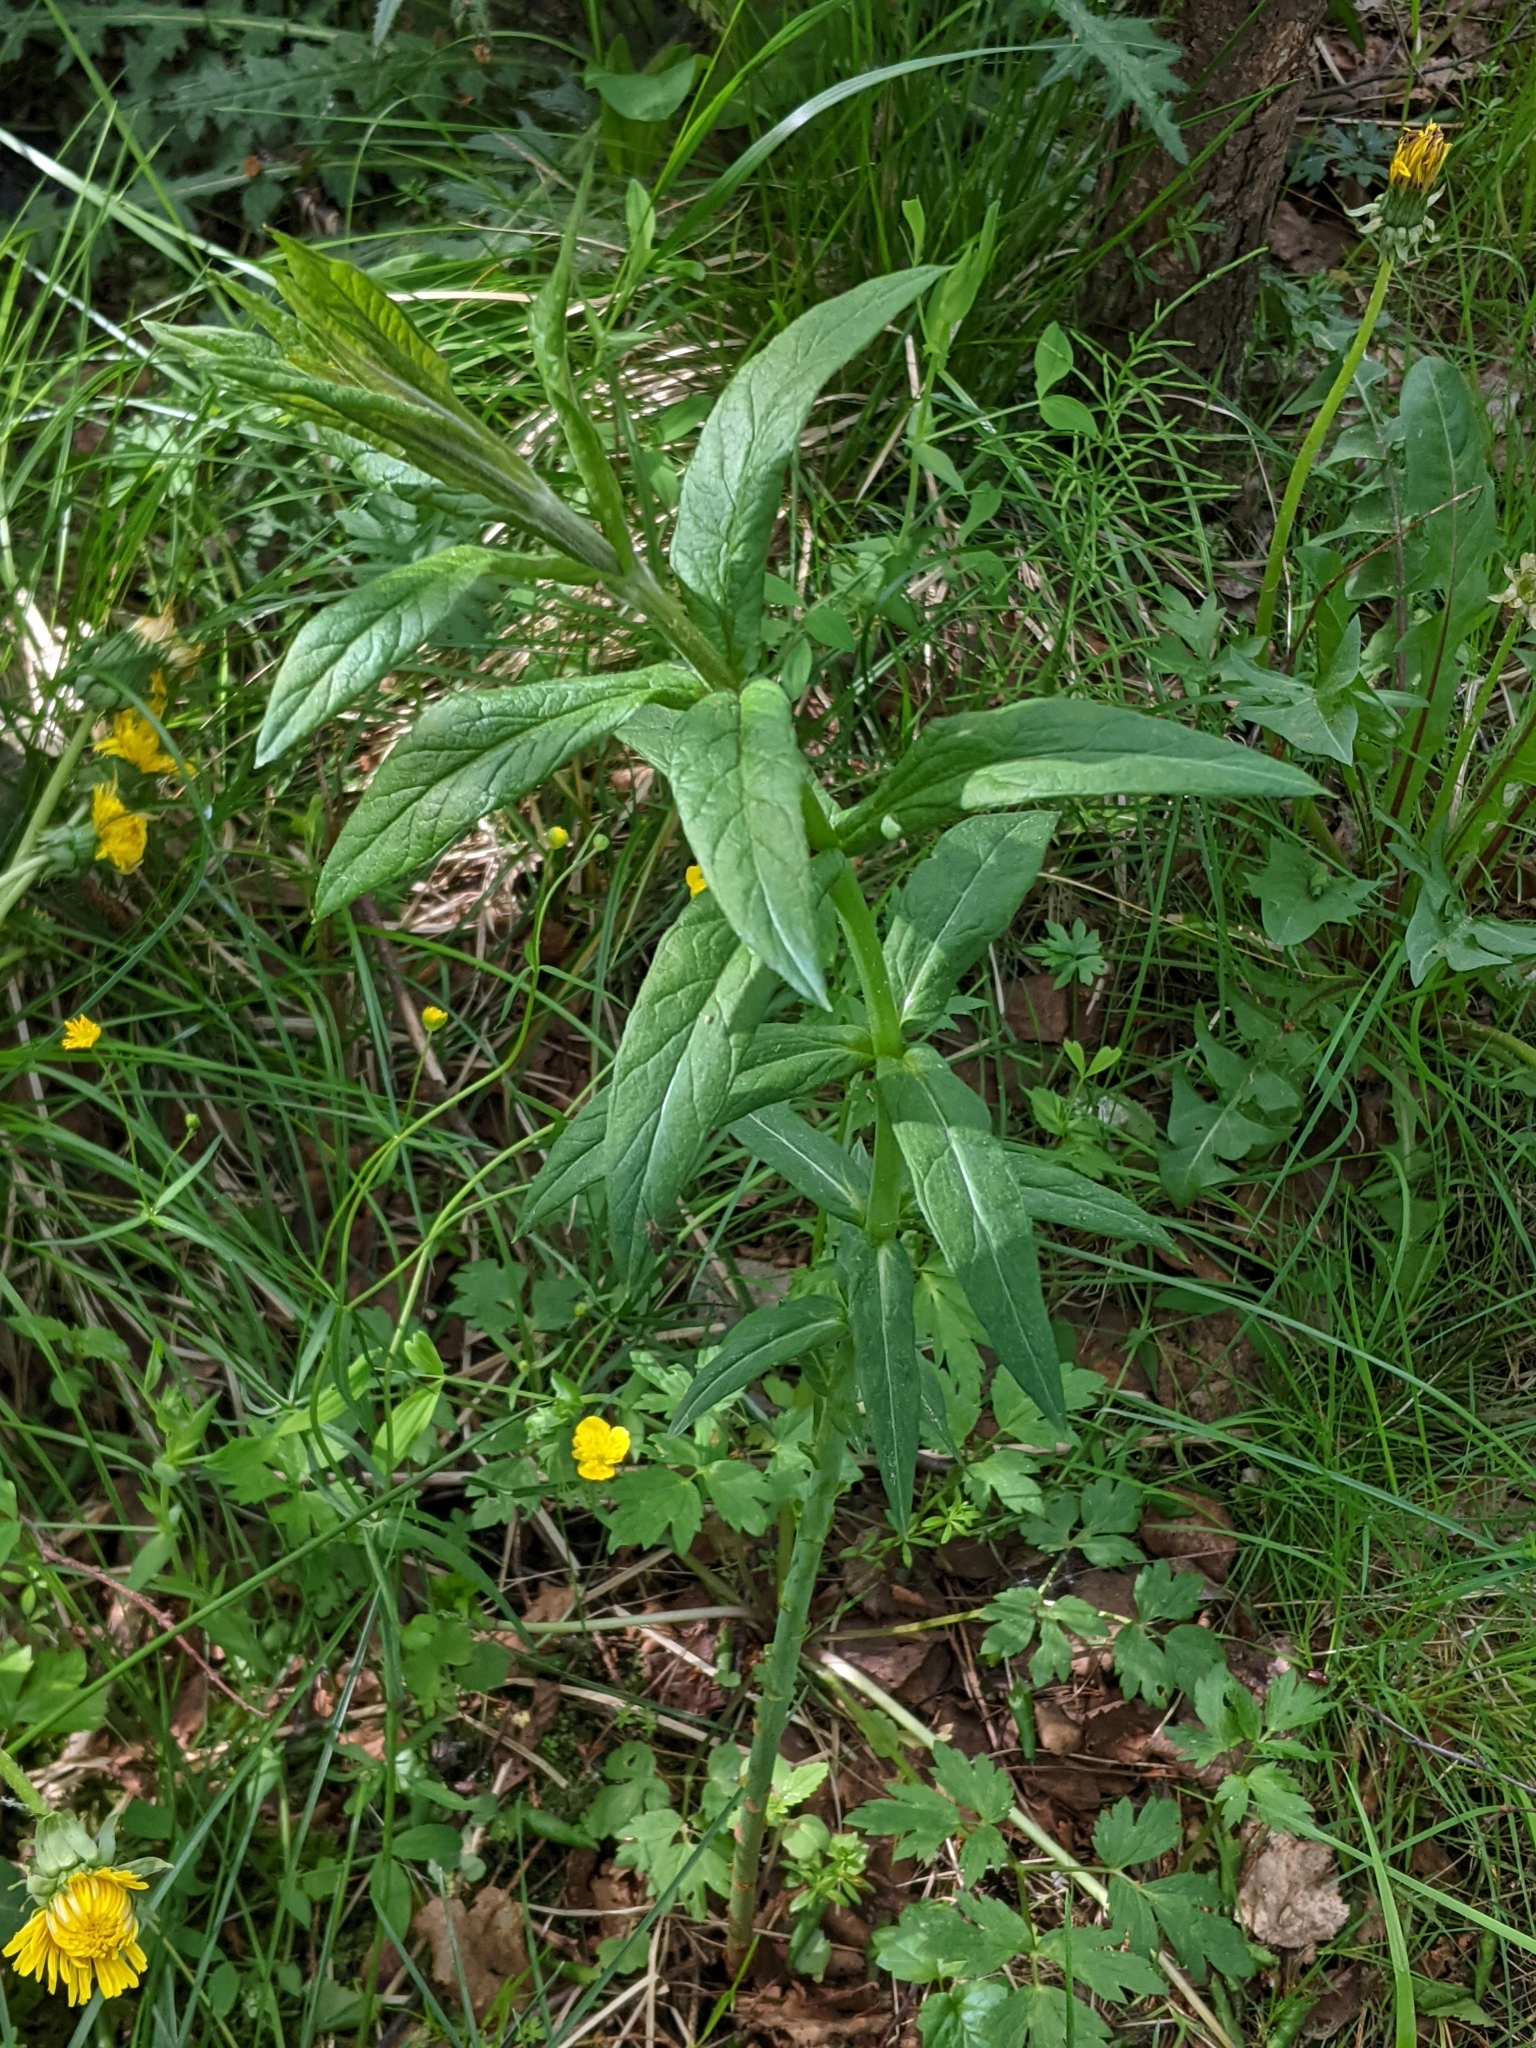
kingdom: Plantae
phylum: Tracheophyta
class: Magnoliopsida
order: Ericales
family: Primulaceae
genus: Lysimachia
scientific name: Lysimachia vulgaris
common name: Yellow loosestrife
